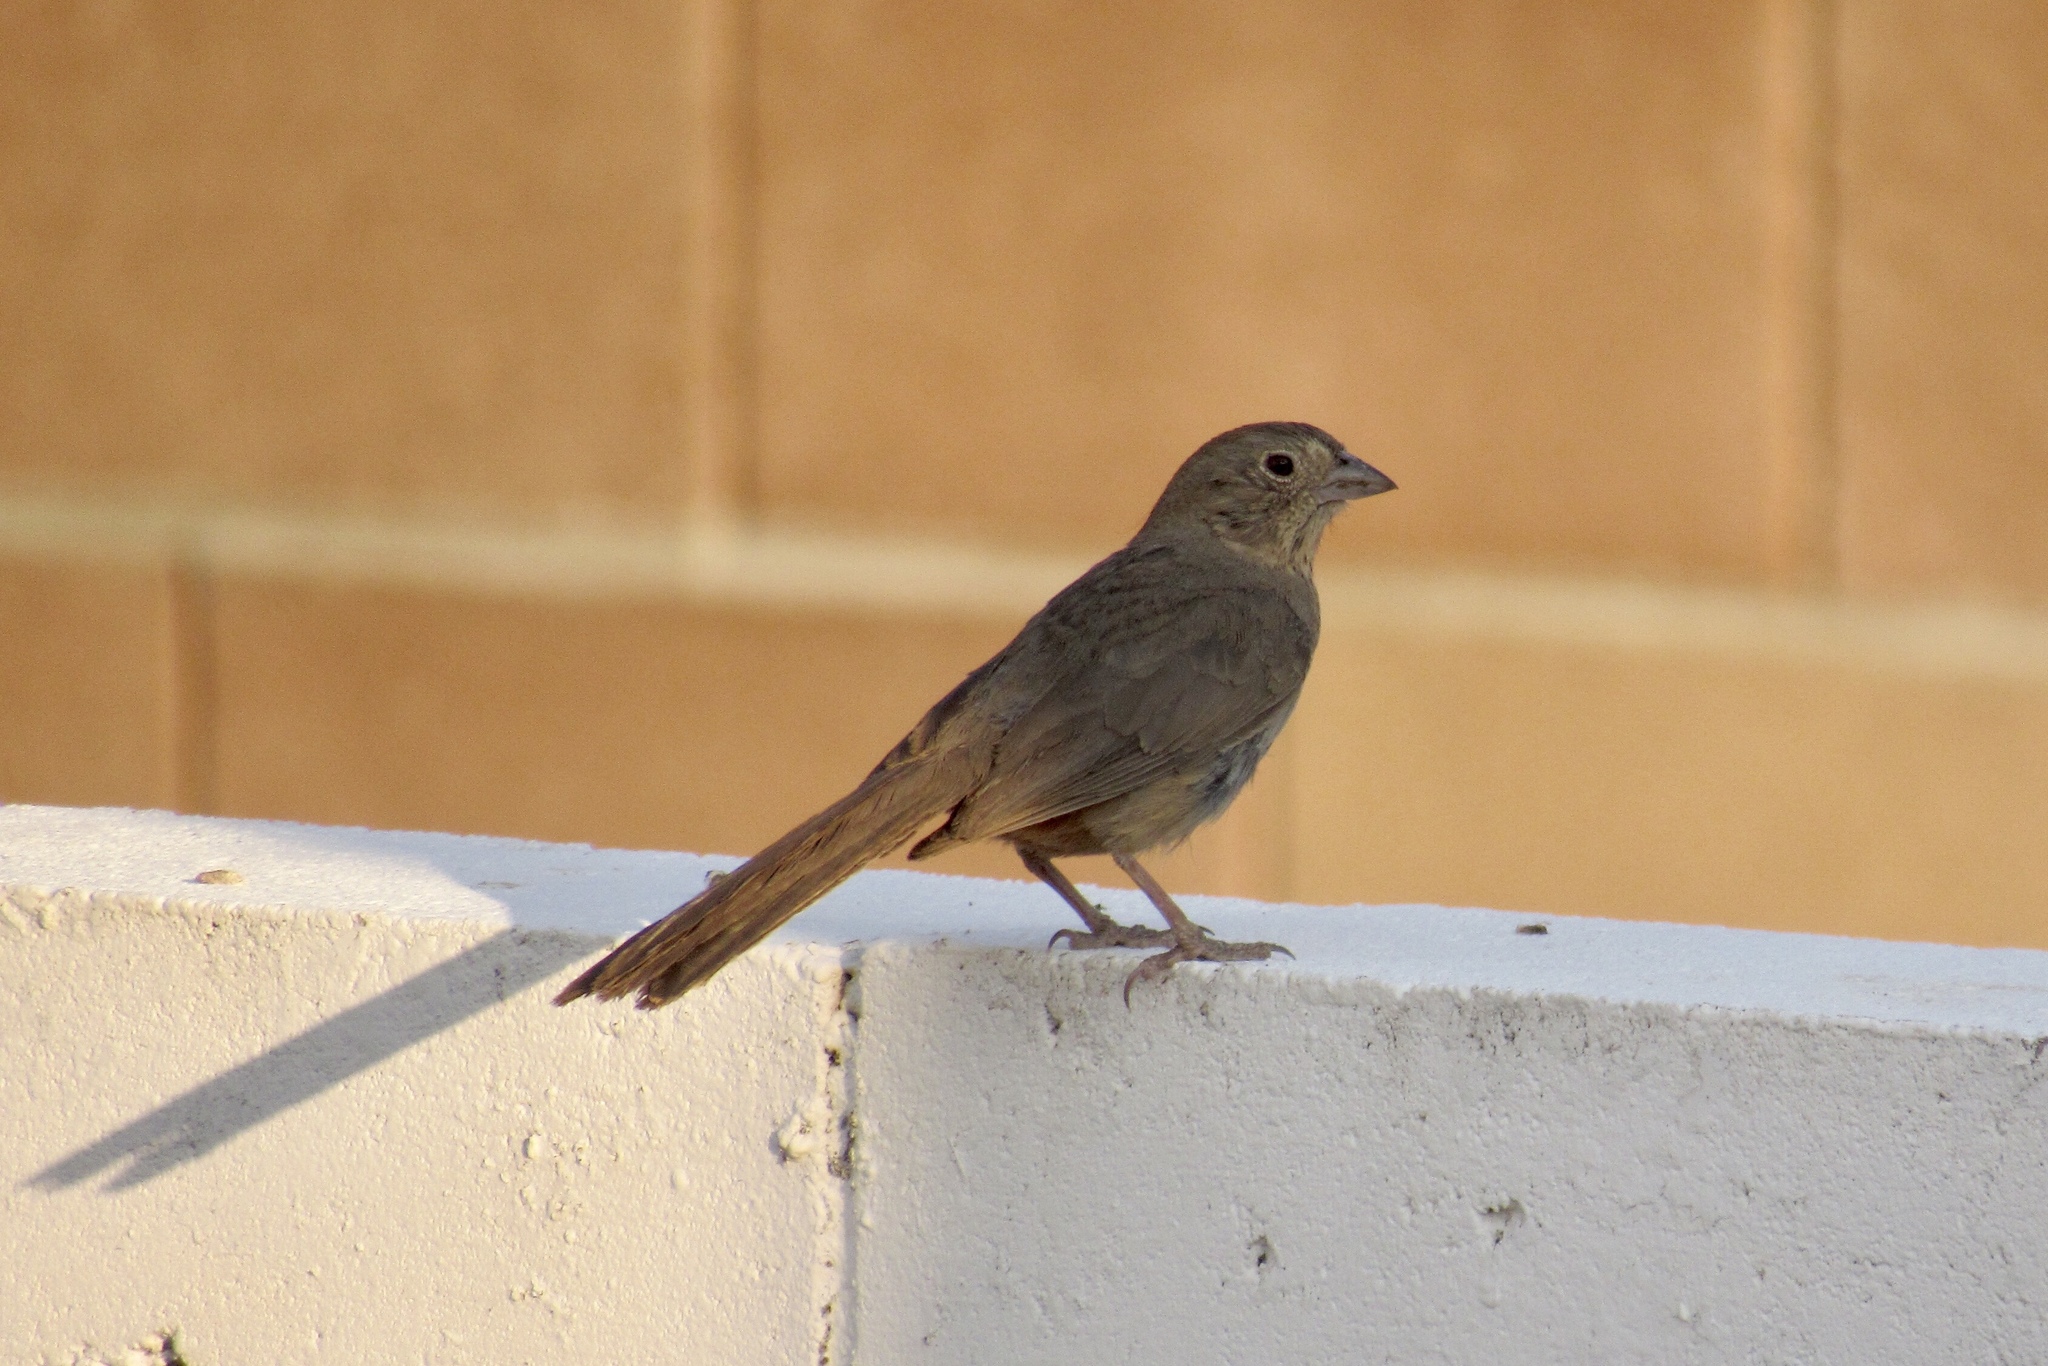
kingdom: Animalia
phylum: Chordata
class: Aves
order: Passeriformes
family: Passerellidae
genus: Melozone
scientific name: Melozone fusca
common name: Canyon towhee
